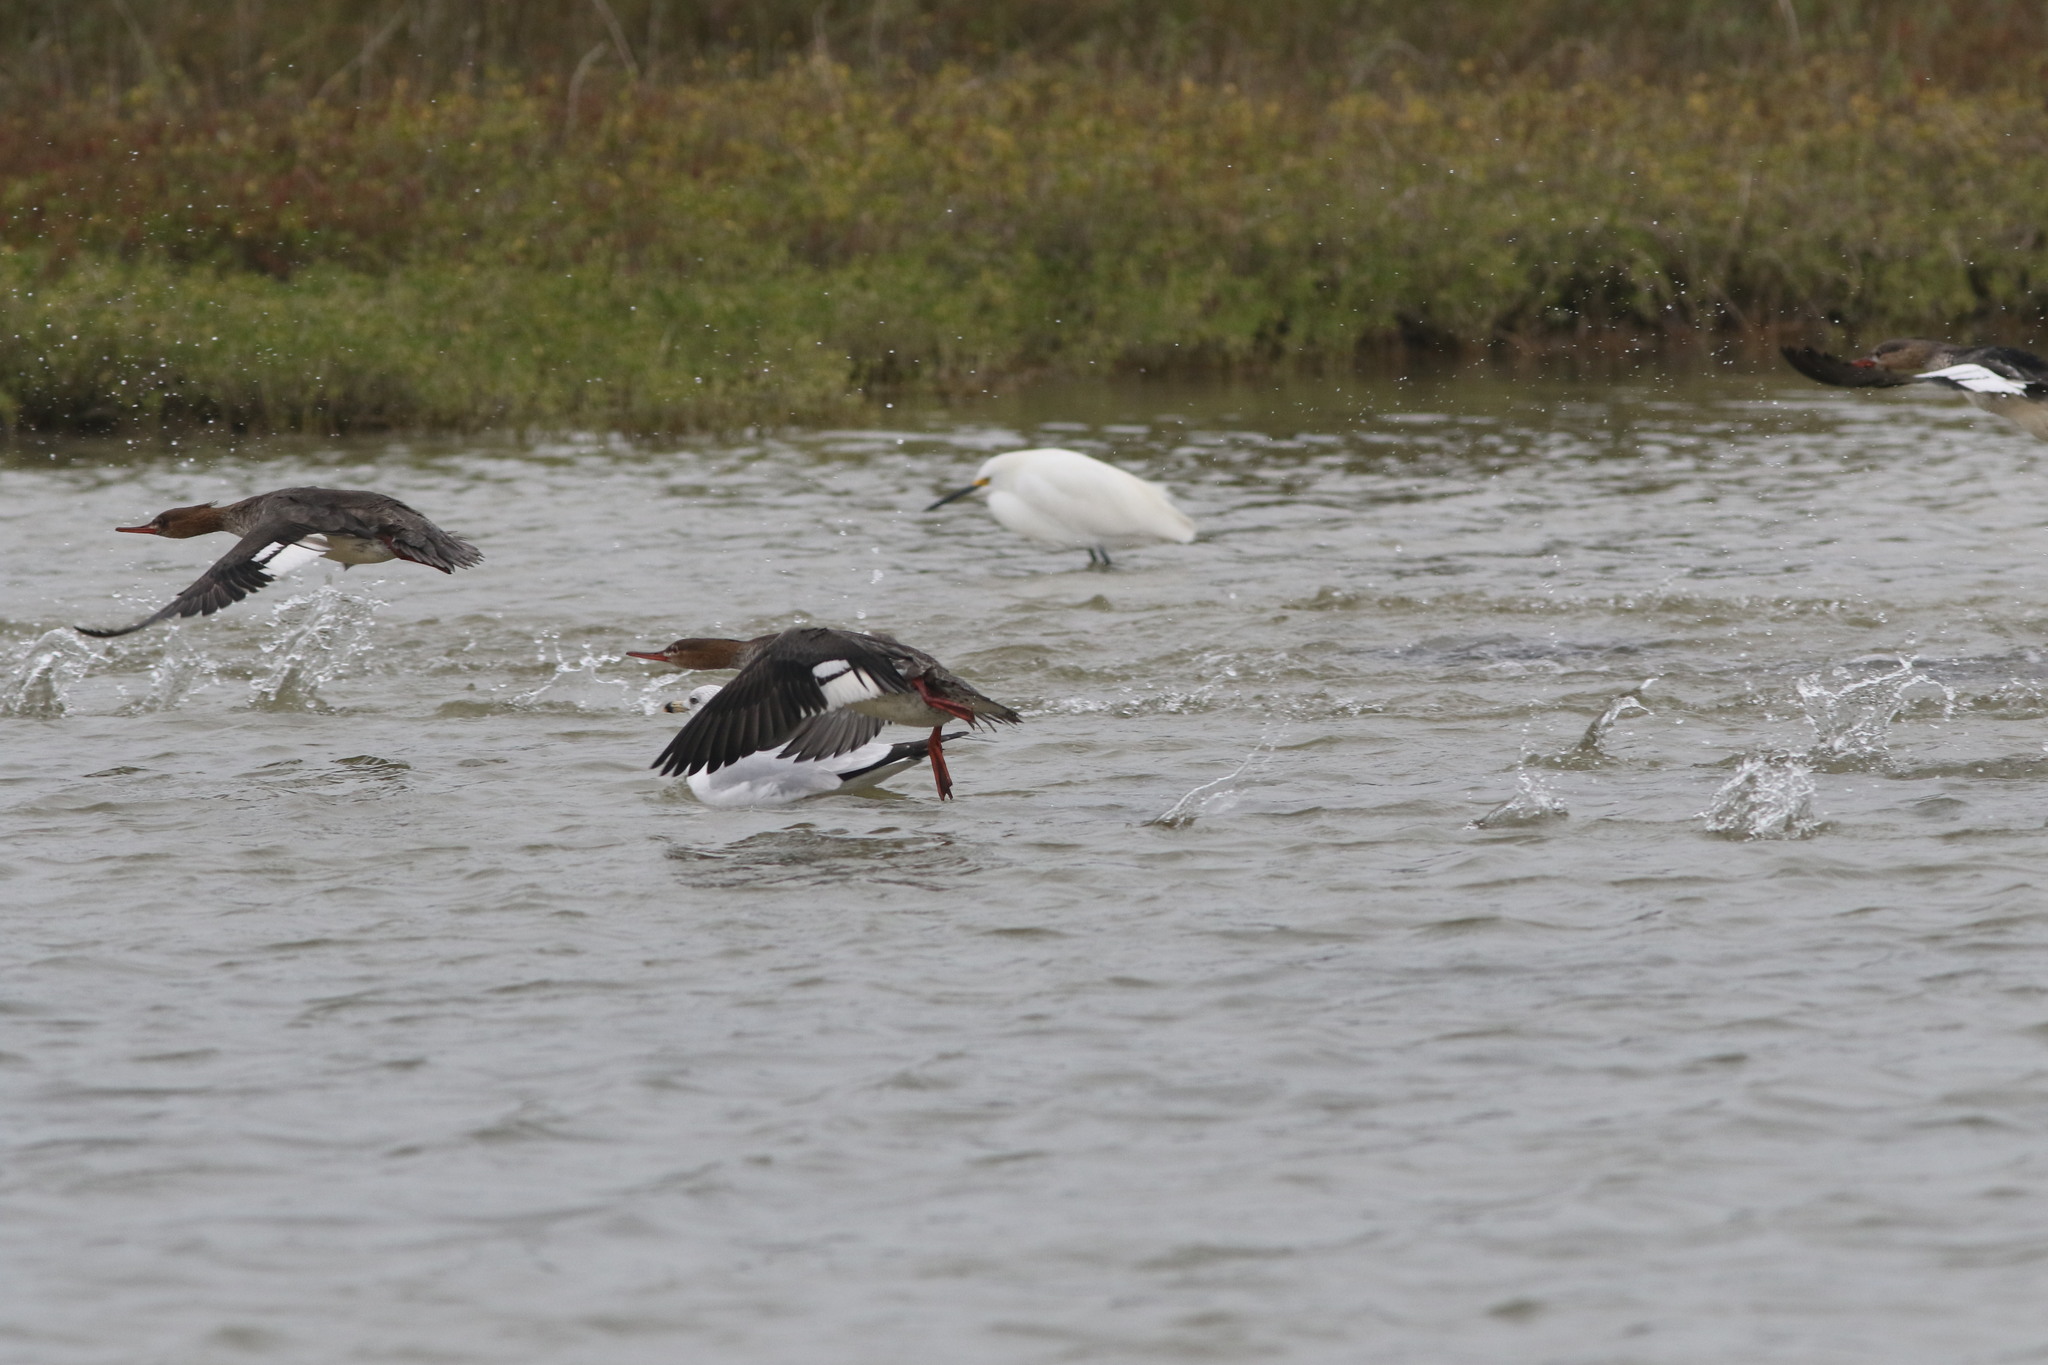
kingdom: Animalia
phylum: Chordata
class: Aves
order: Anseriformes
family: Anatidae
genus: Mergus
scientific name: Mergus serrator
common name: Red-breasted merganser
